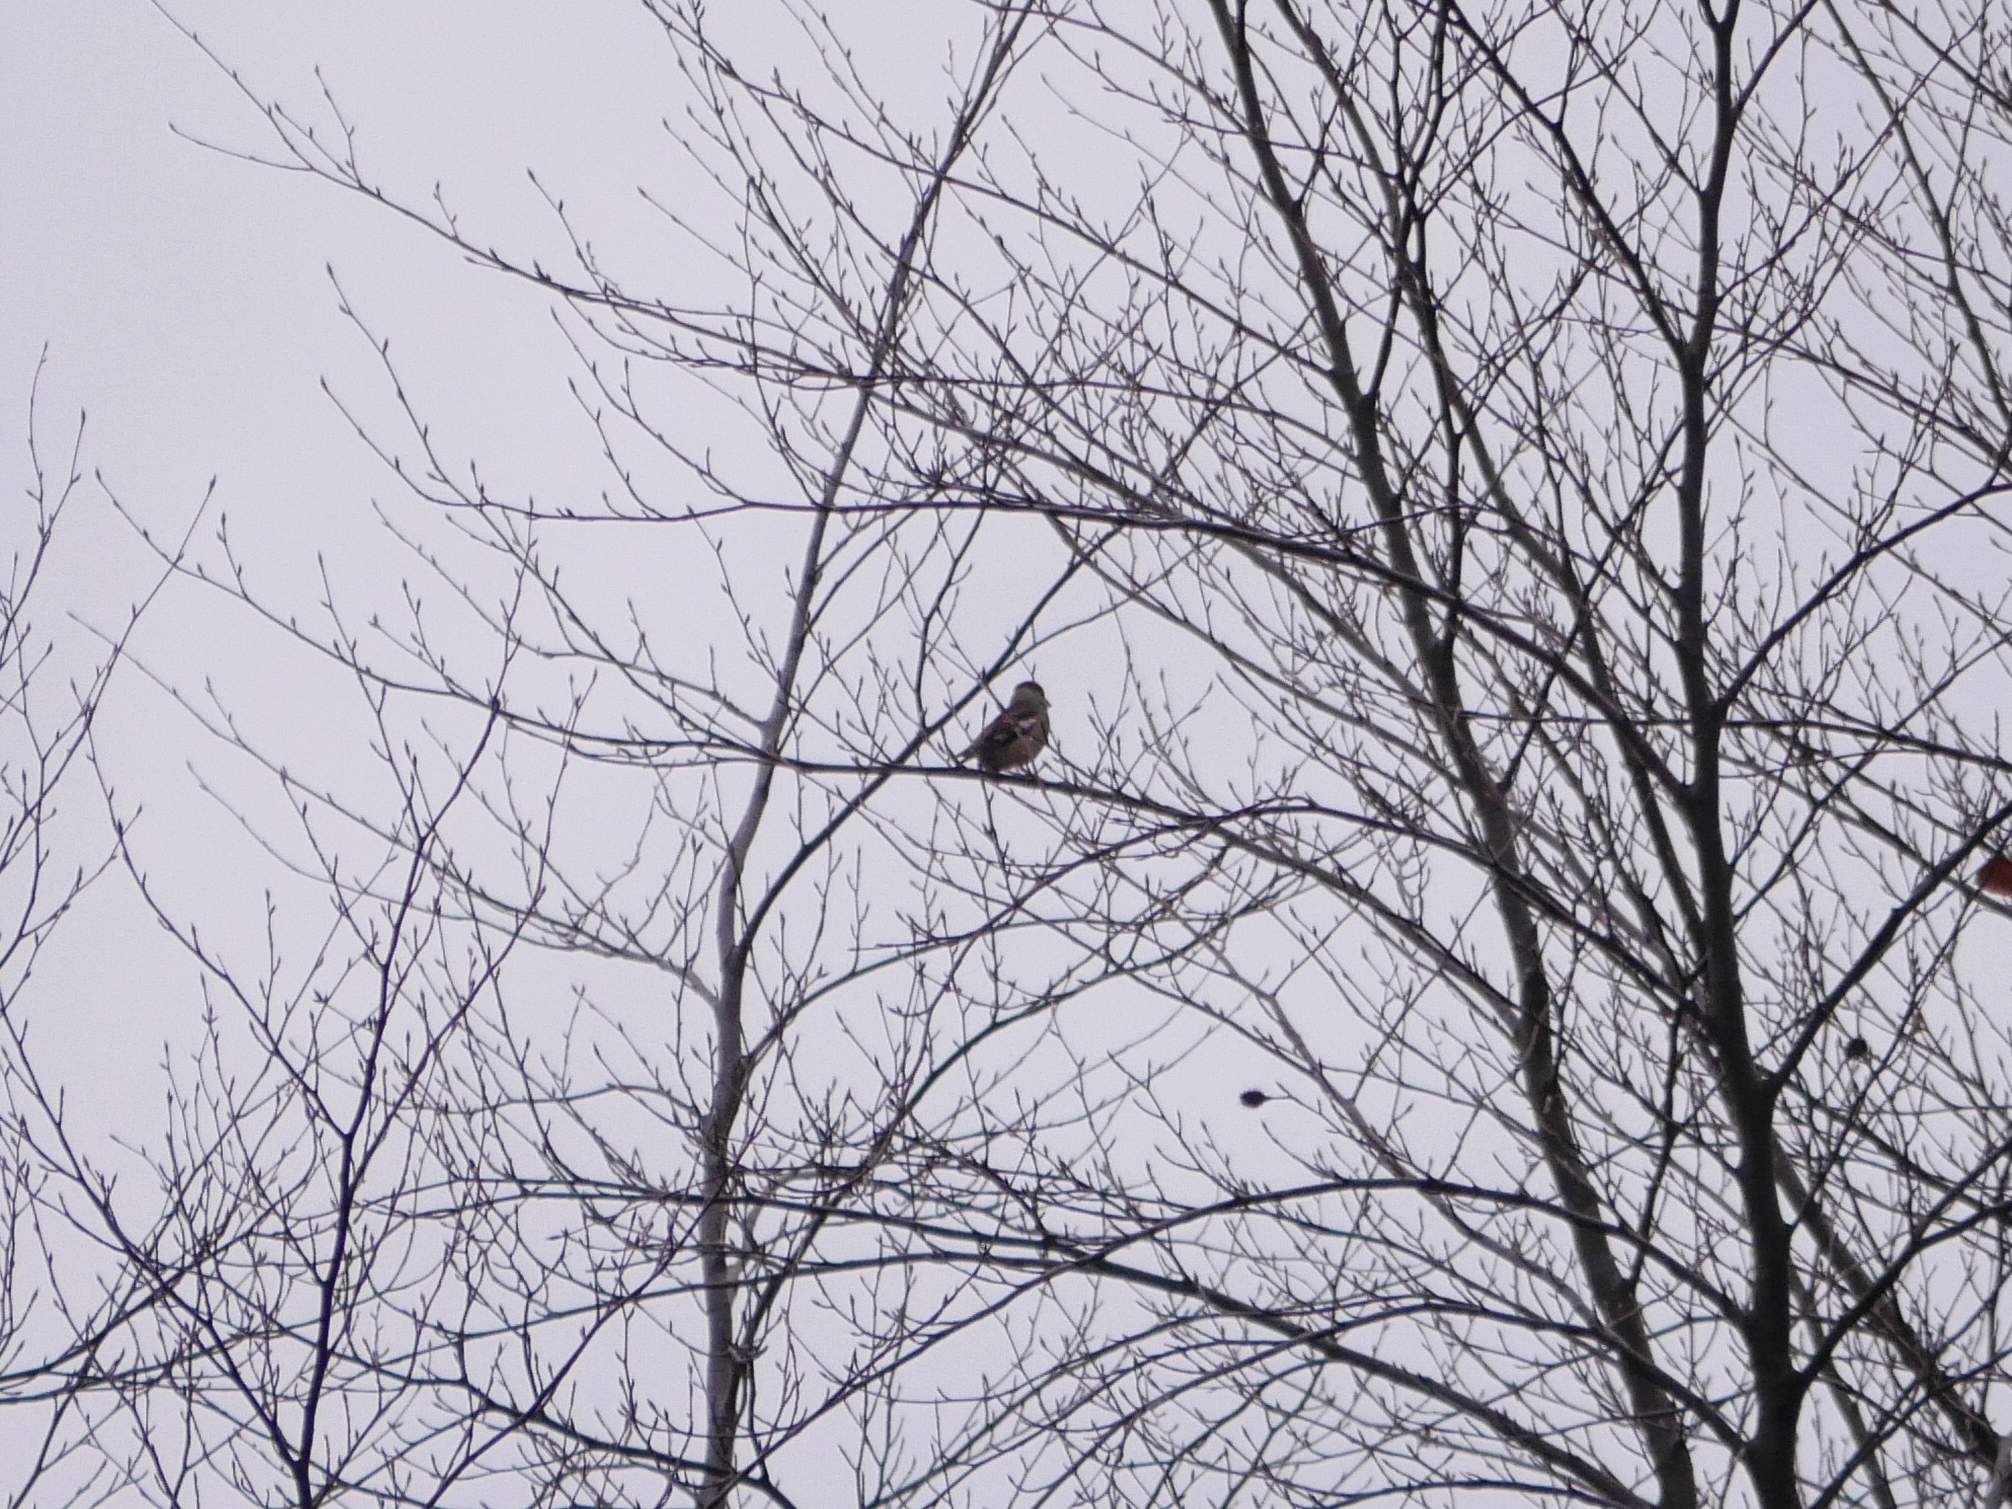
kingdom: Animalia
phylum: Chordata
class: Aves
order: Passeriformes
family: Fringillidae
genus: Coccothraustes
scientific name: Coccothraustes coccothraustes
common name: Hawfinch
